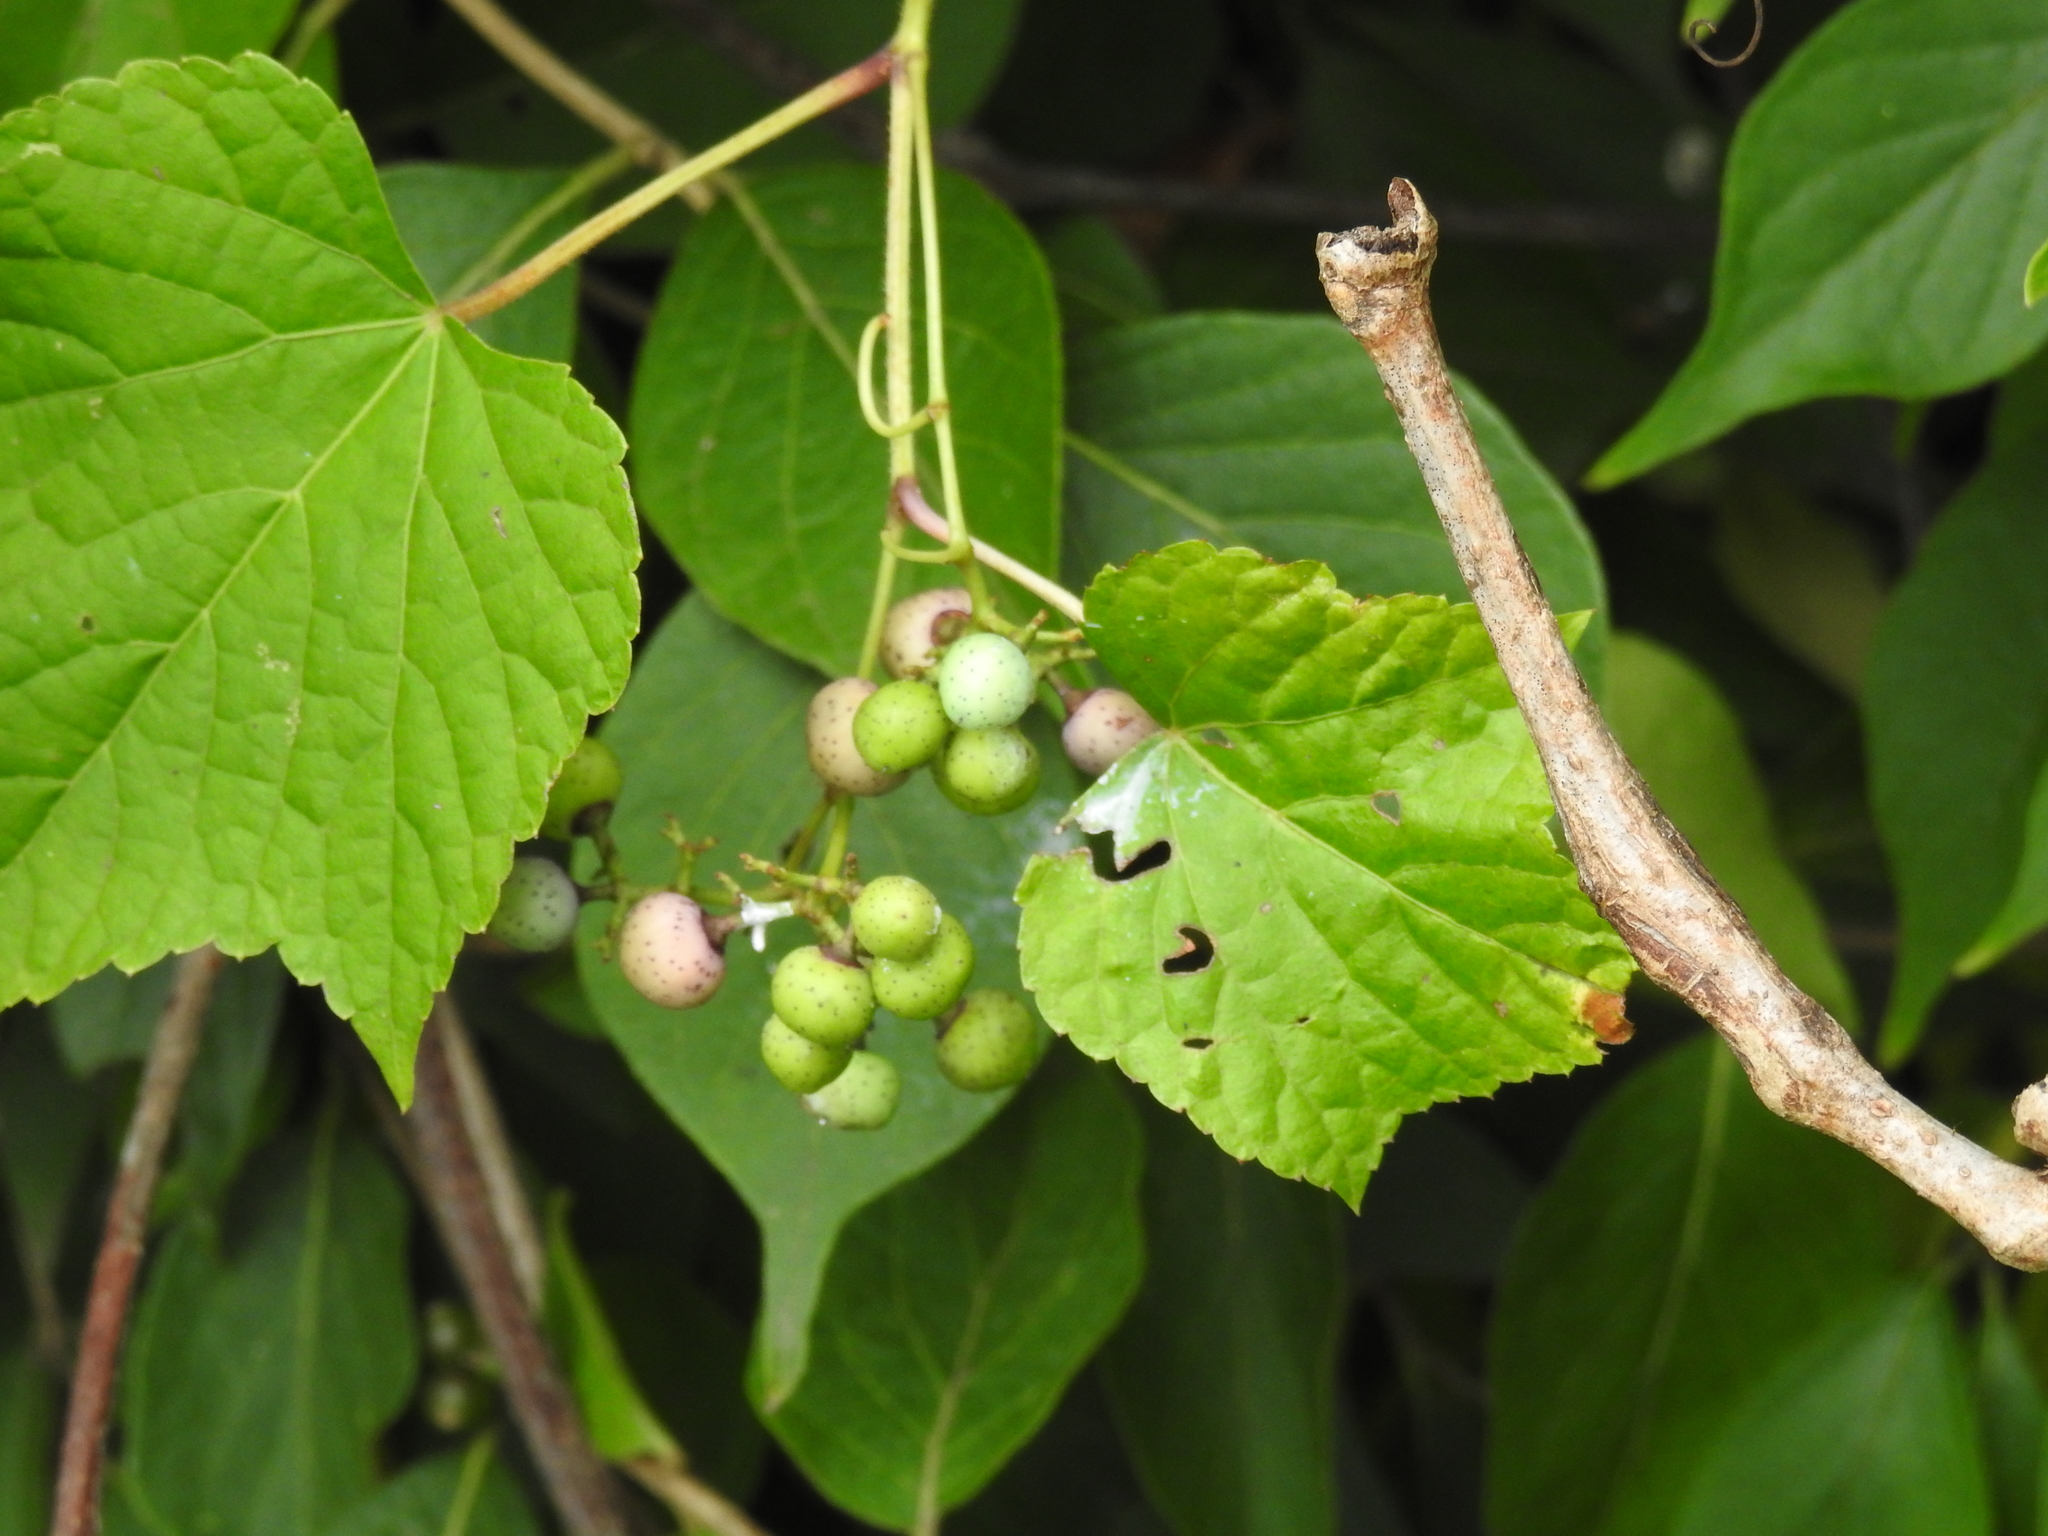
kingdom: Plantae
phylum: Tracheophyta
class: Magnoliopsida
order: Vitales
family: Vitaceae
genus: Ampelopsis
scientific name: Ampelopsis glandulosa
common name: Amur peppervine
